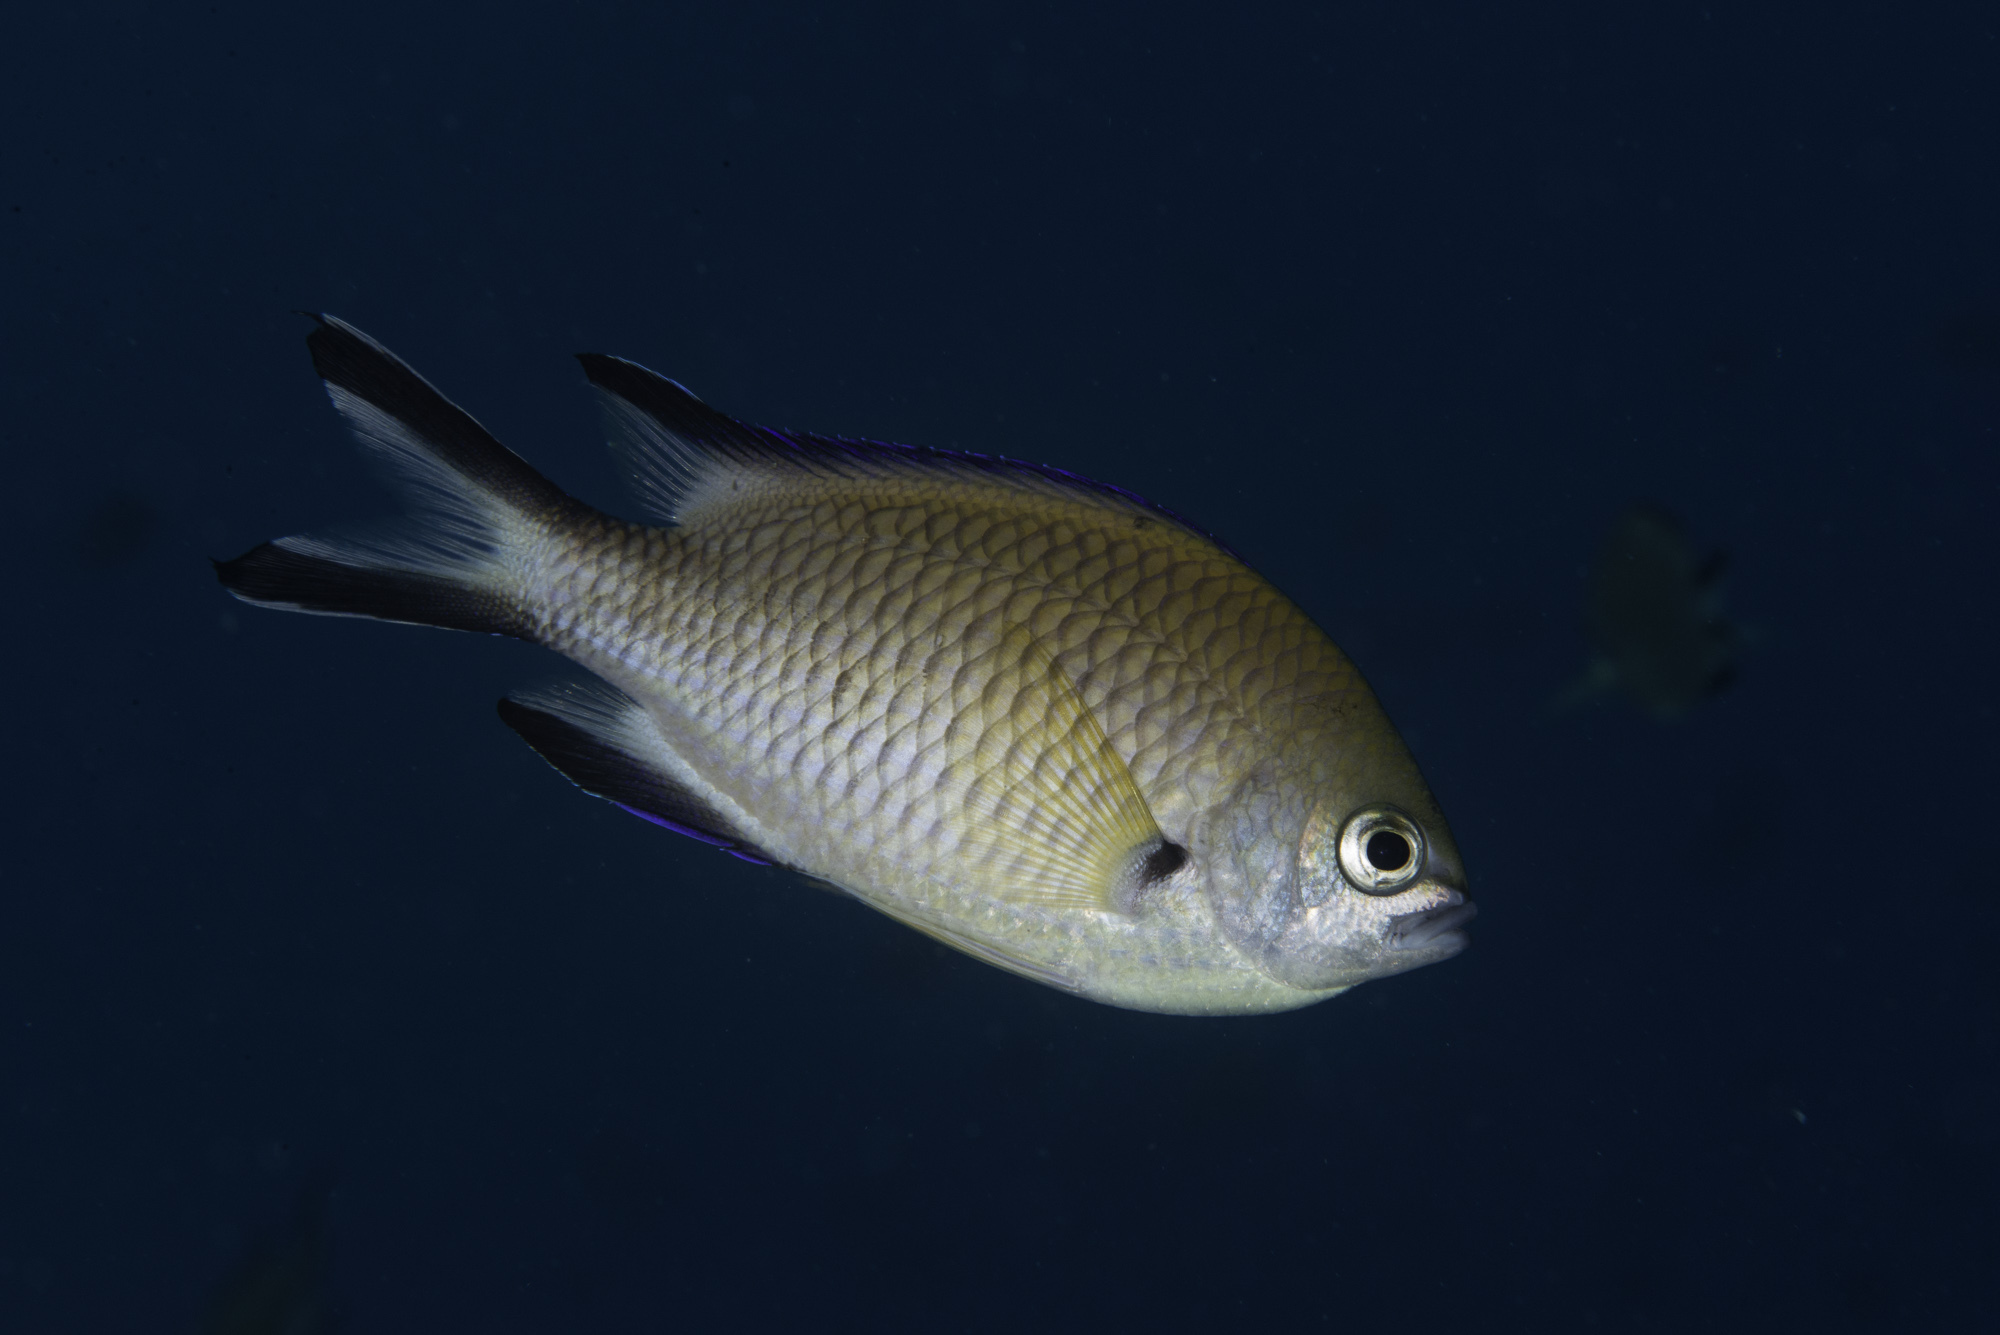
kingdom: Animalia
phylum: Chordata
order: Perciformes
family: Pomacentridae
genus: Chromis
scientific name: Chromis limbata
